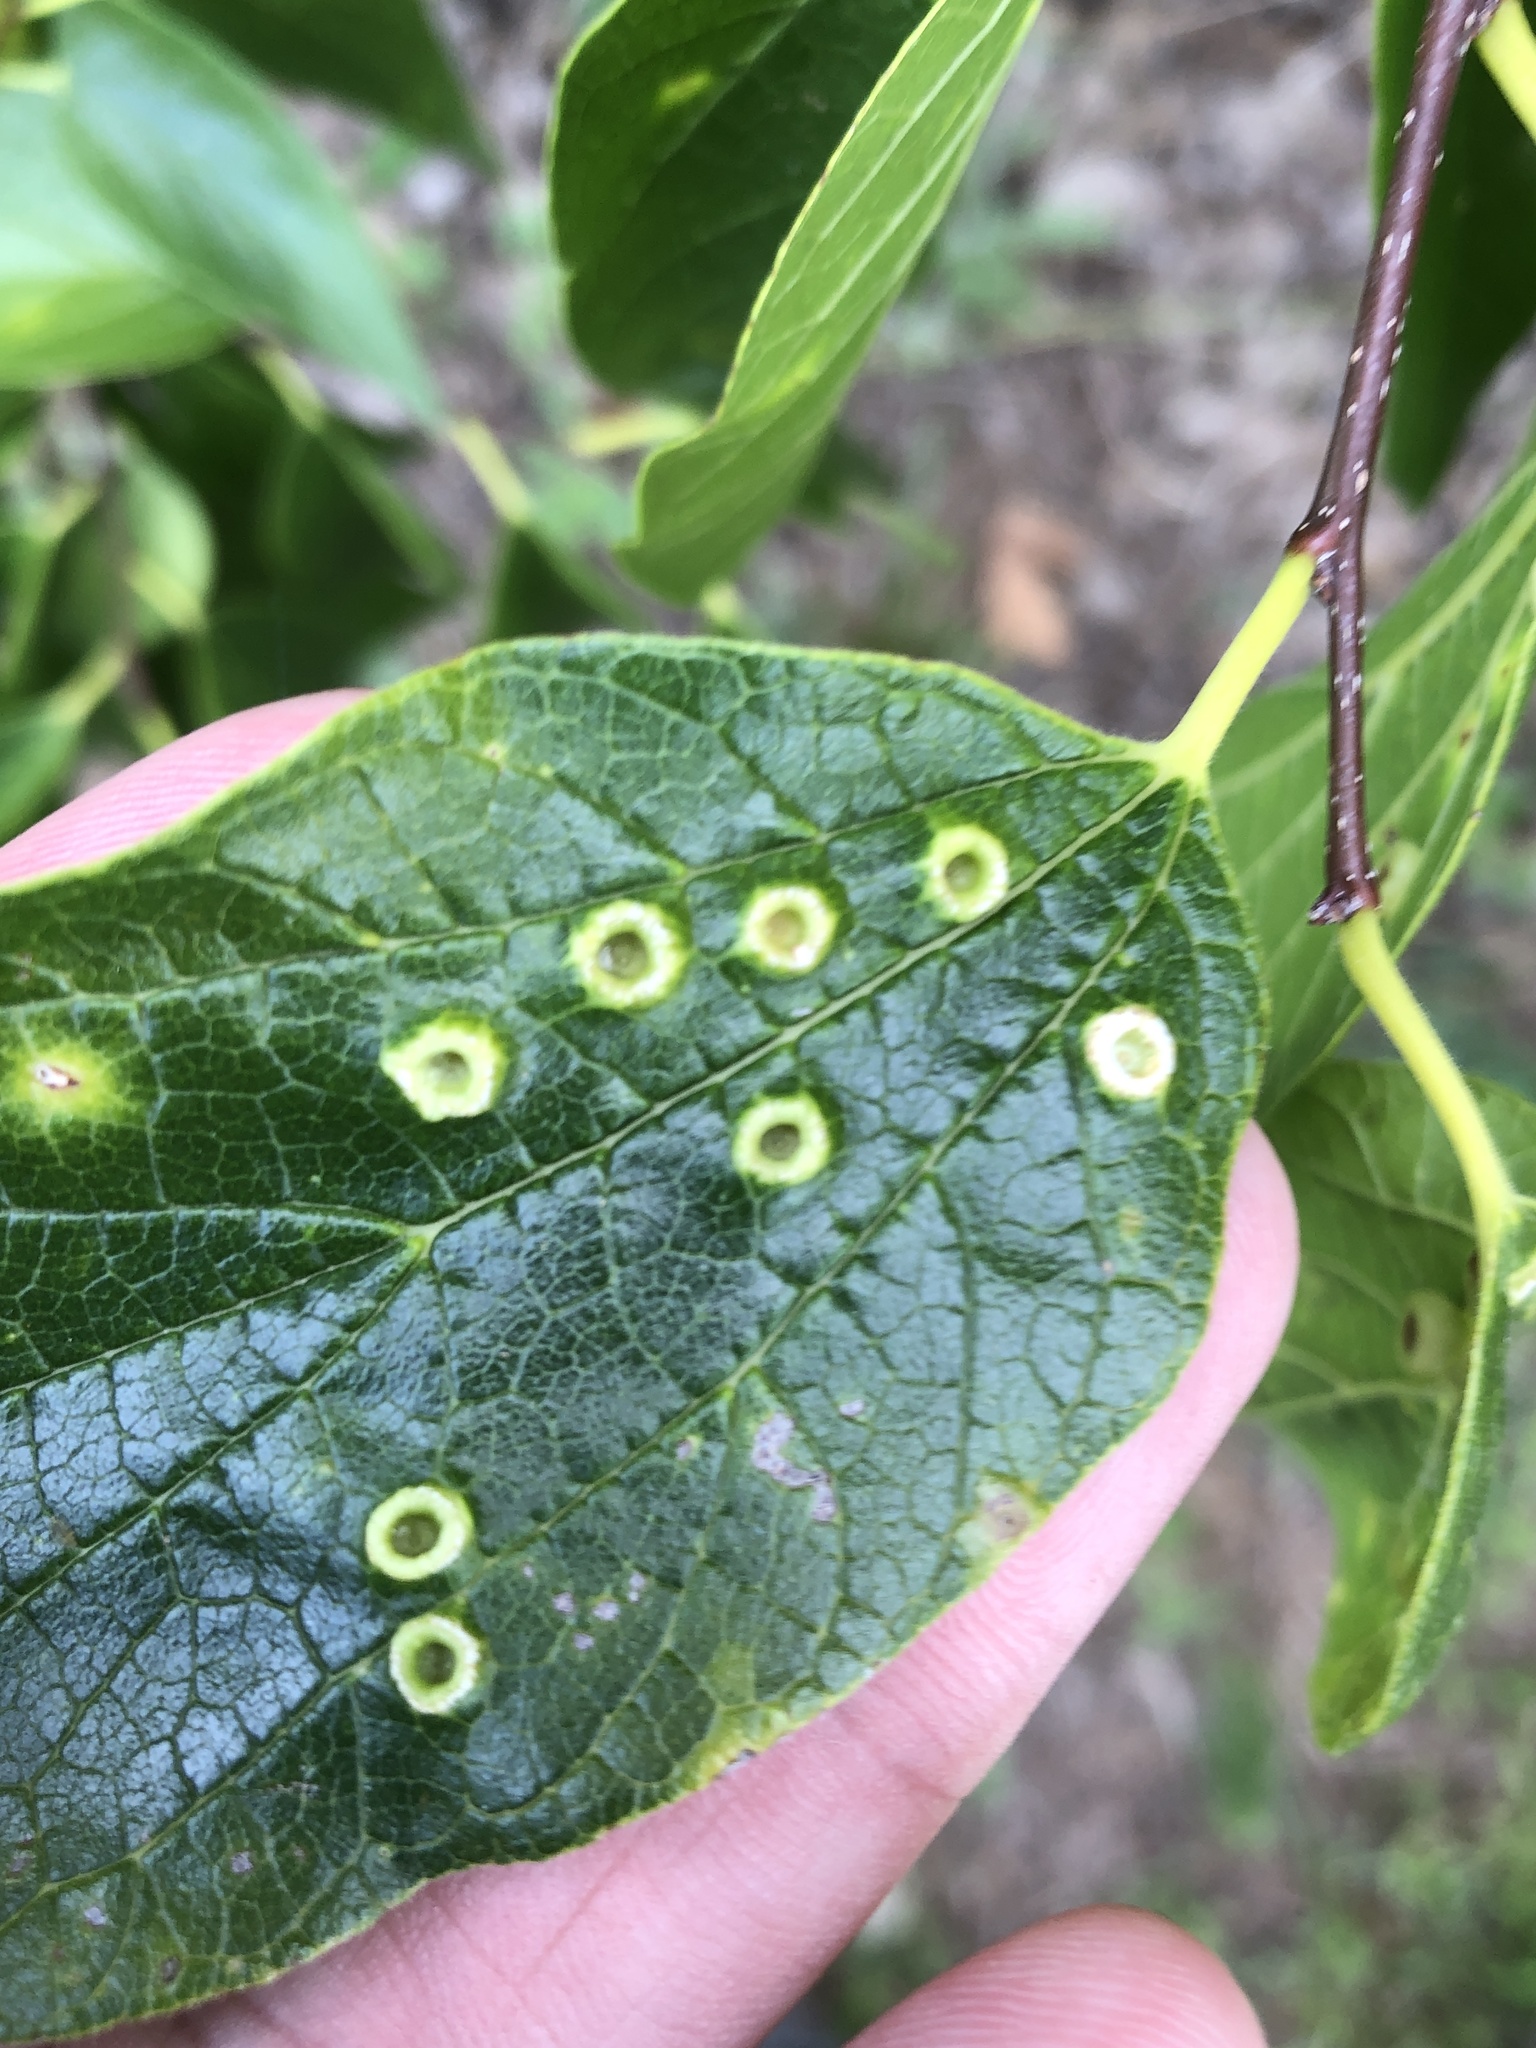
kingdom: Animalia
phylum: Arthropoda
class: Insecta
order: Hemiptera
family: Aphalaridae
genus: Pachypsylla
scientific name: Pachypsylla celtidismamma
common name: Hackberry nipplegall psyllid
